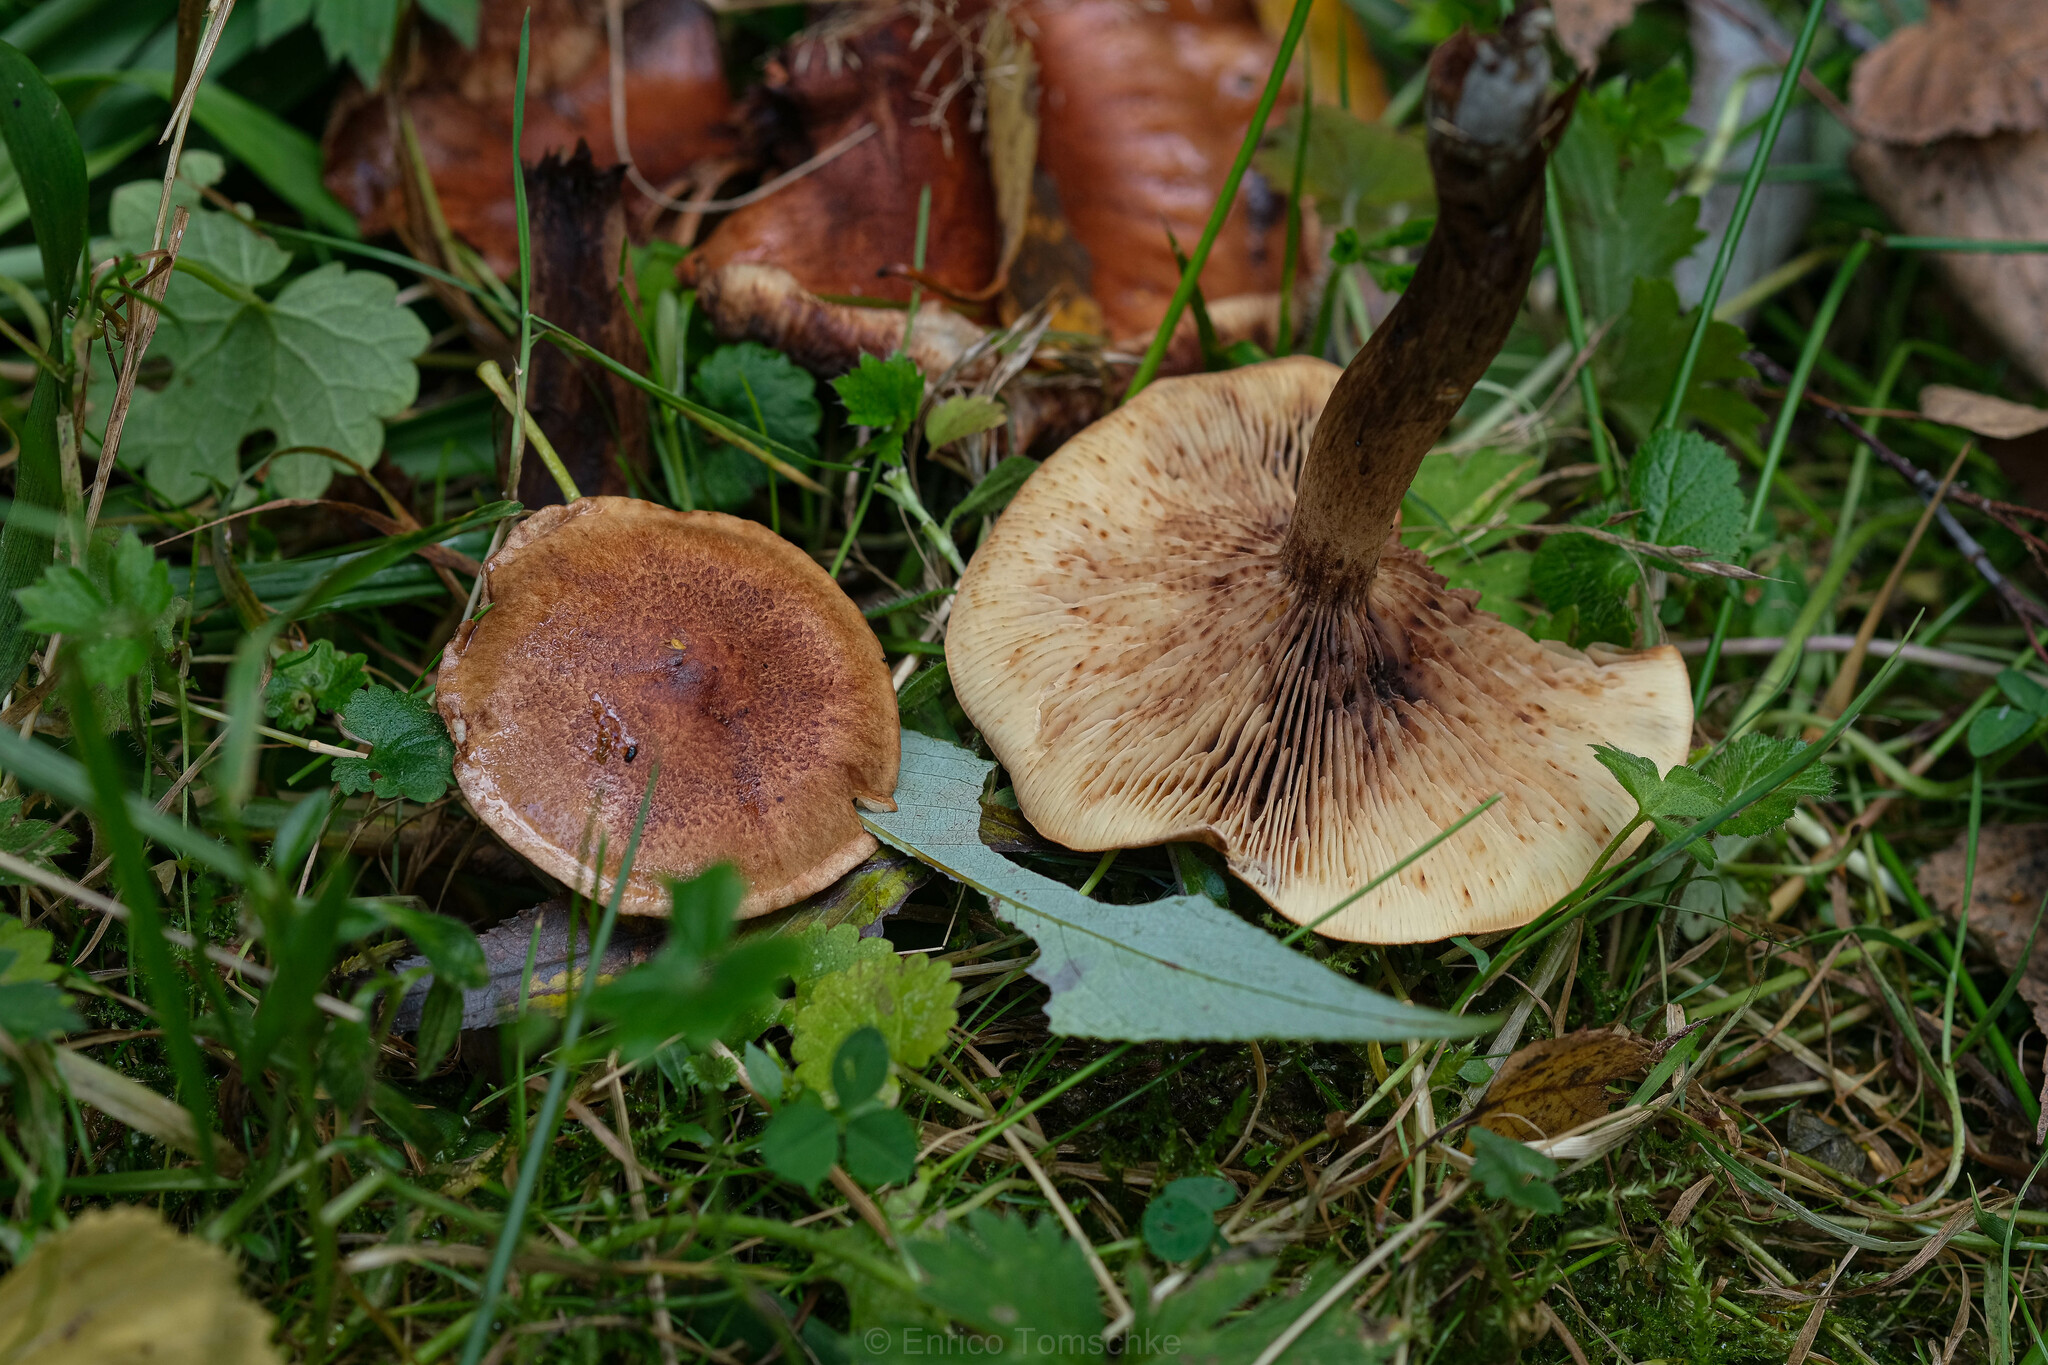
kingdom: Fungi
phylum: Basidiomycota
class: Agaricomycetes
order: Agaricales
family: Tricholomataceae
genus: Tricholoma
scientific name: Tricholoma fulvum
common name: Birch knight
